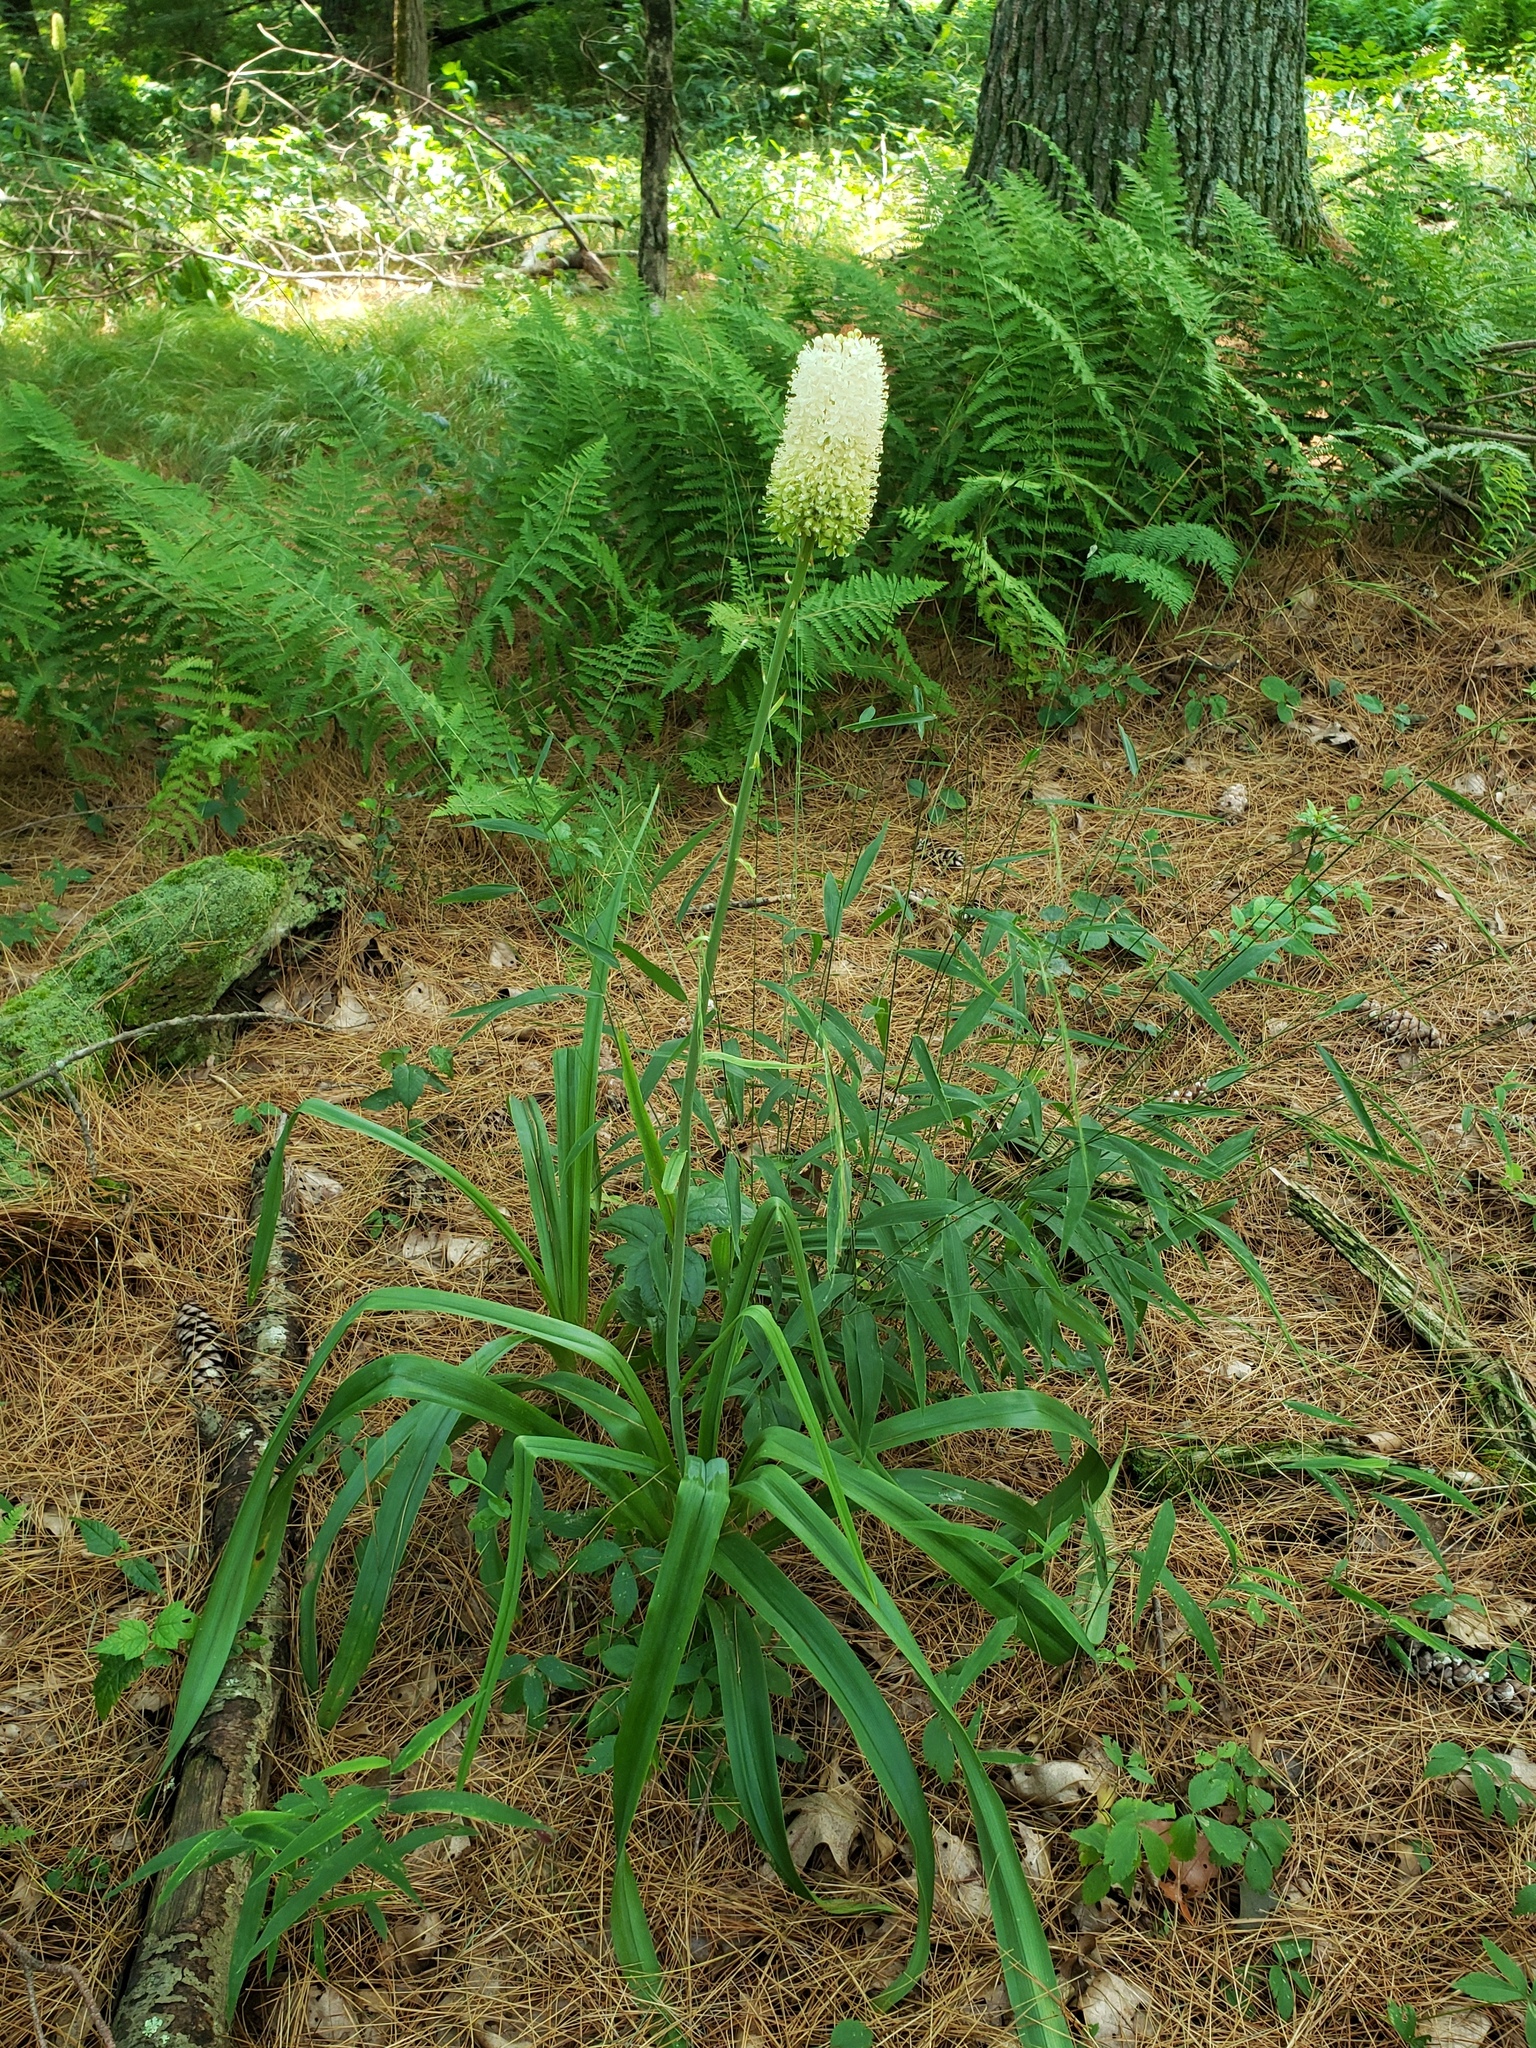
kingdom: Plantae
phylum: Tracheophyta
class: Liliopsida
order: Liliales
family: Melanthiaceae
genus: Amianthium
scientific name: Amianthium muscitoxicum
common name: Fly-poison
